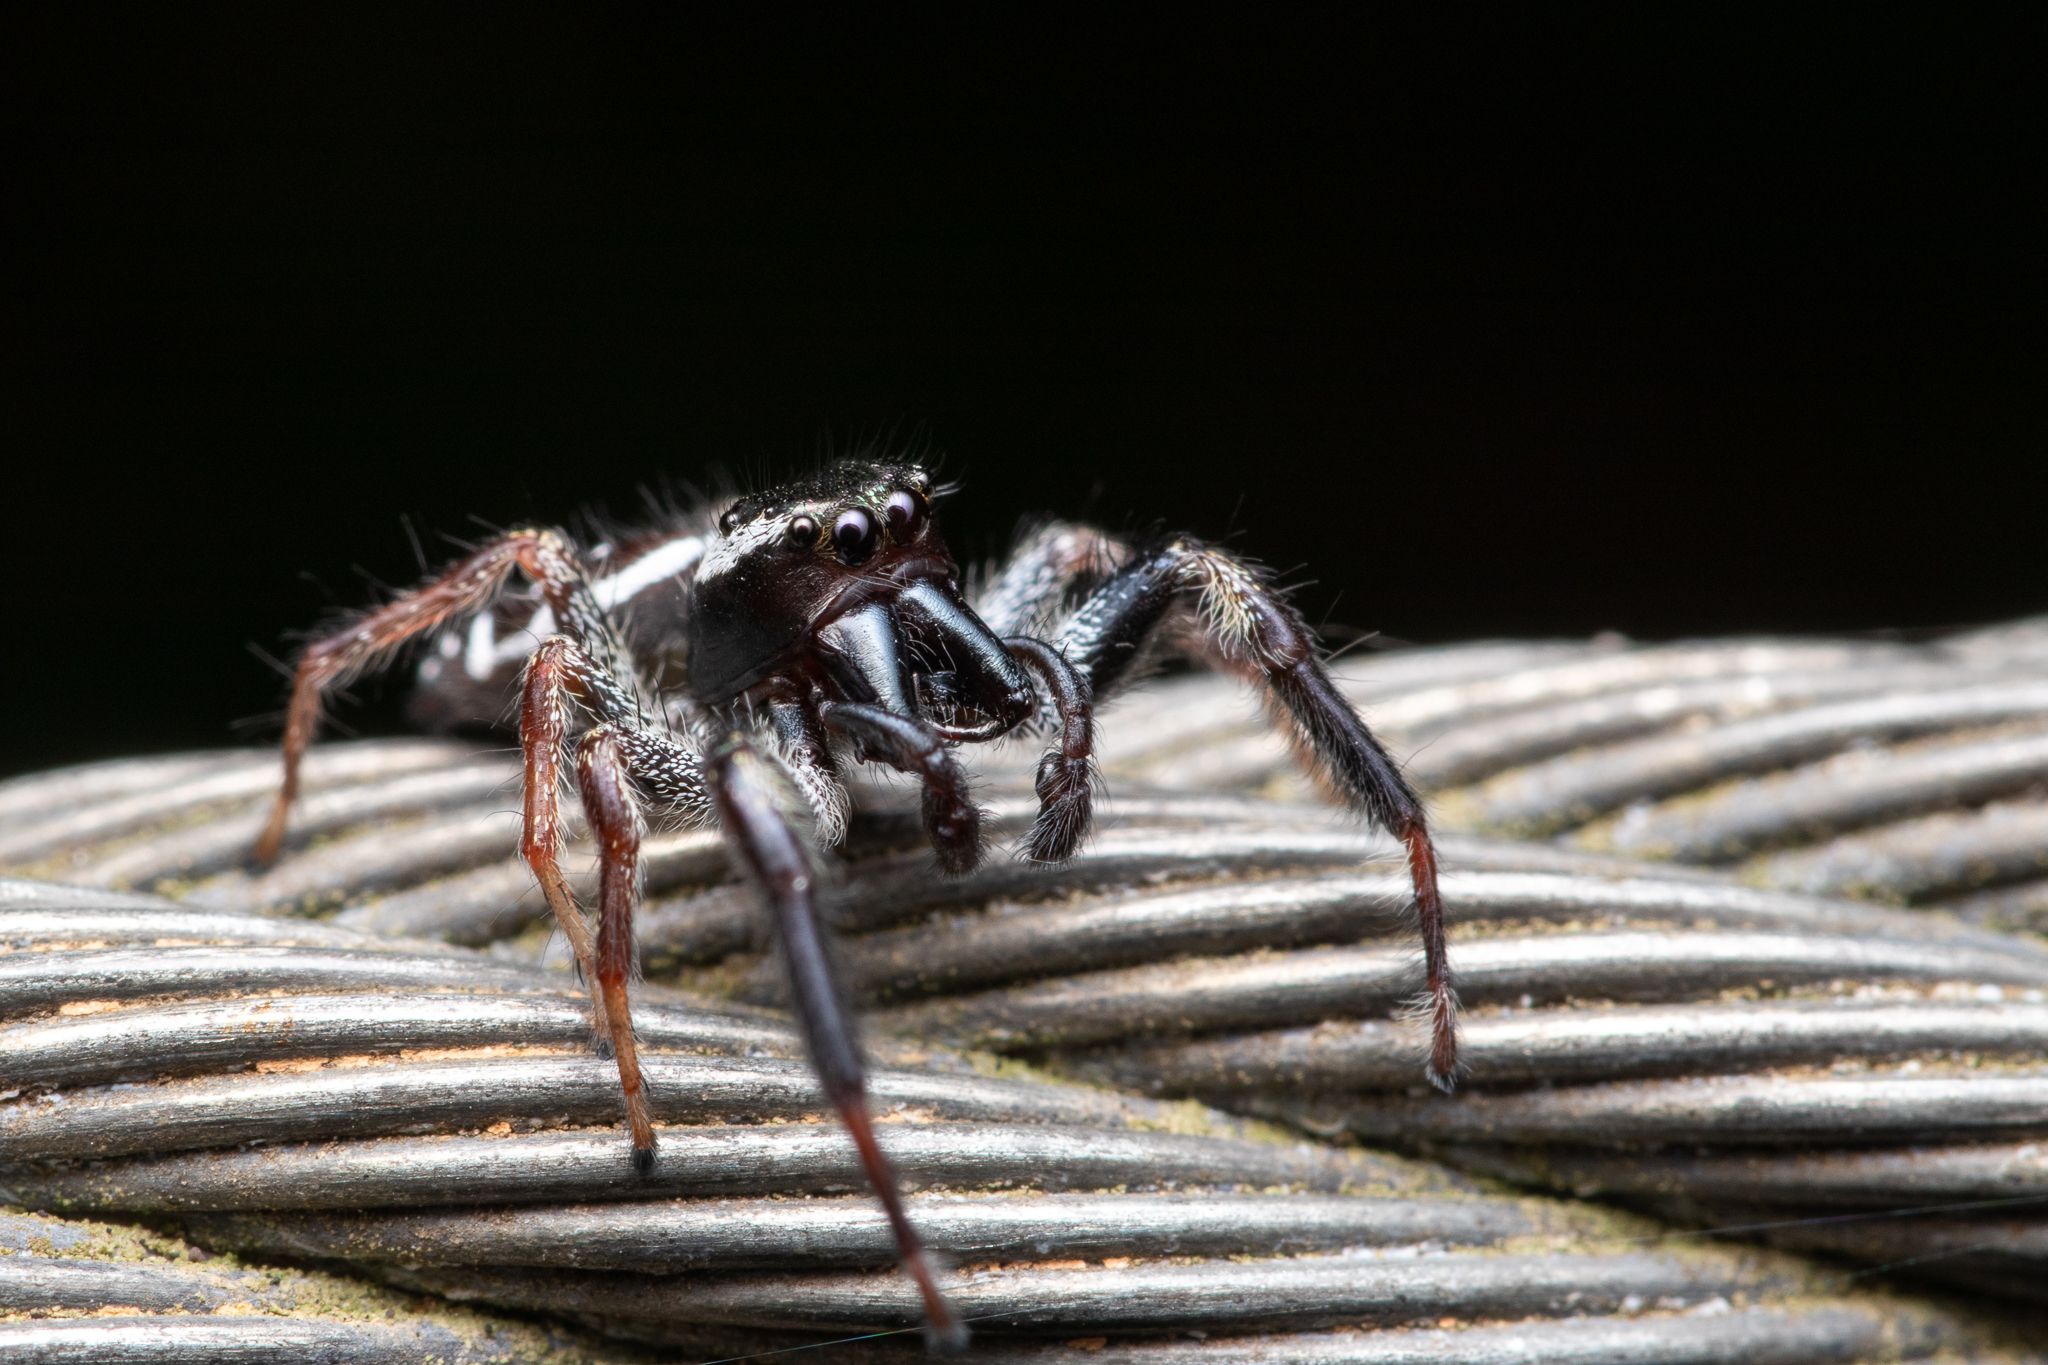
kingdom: Animalia
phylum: Arthropoda
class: Arachnida
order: Araneae
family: Salticidae
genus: Paraphidippus
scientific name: Paraphidippus aurantius
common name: Jumping spiders
